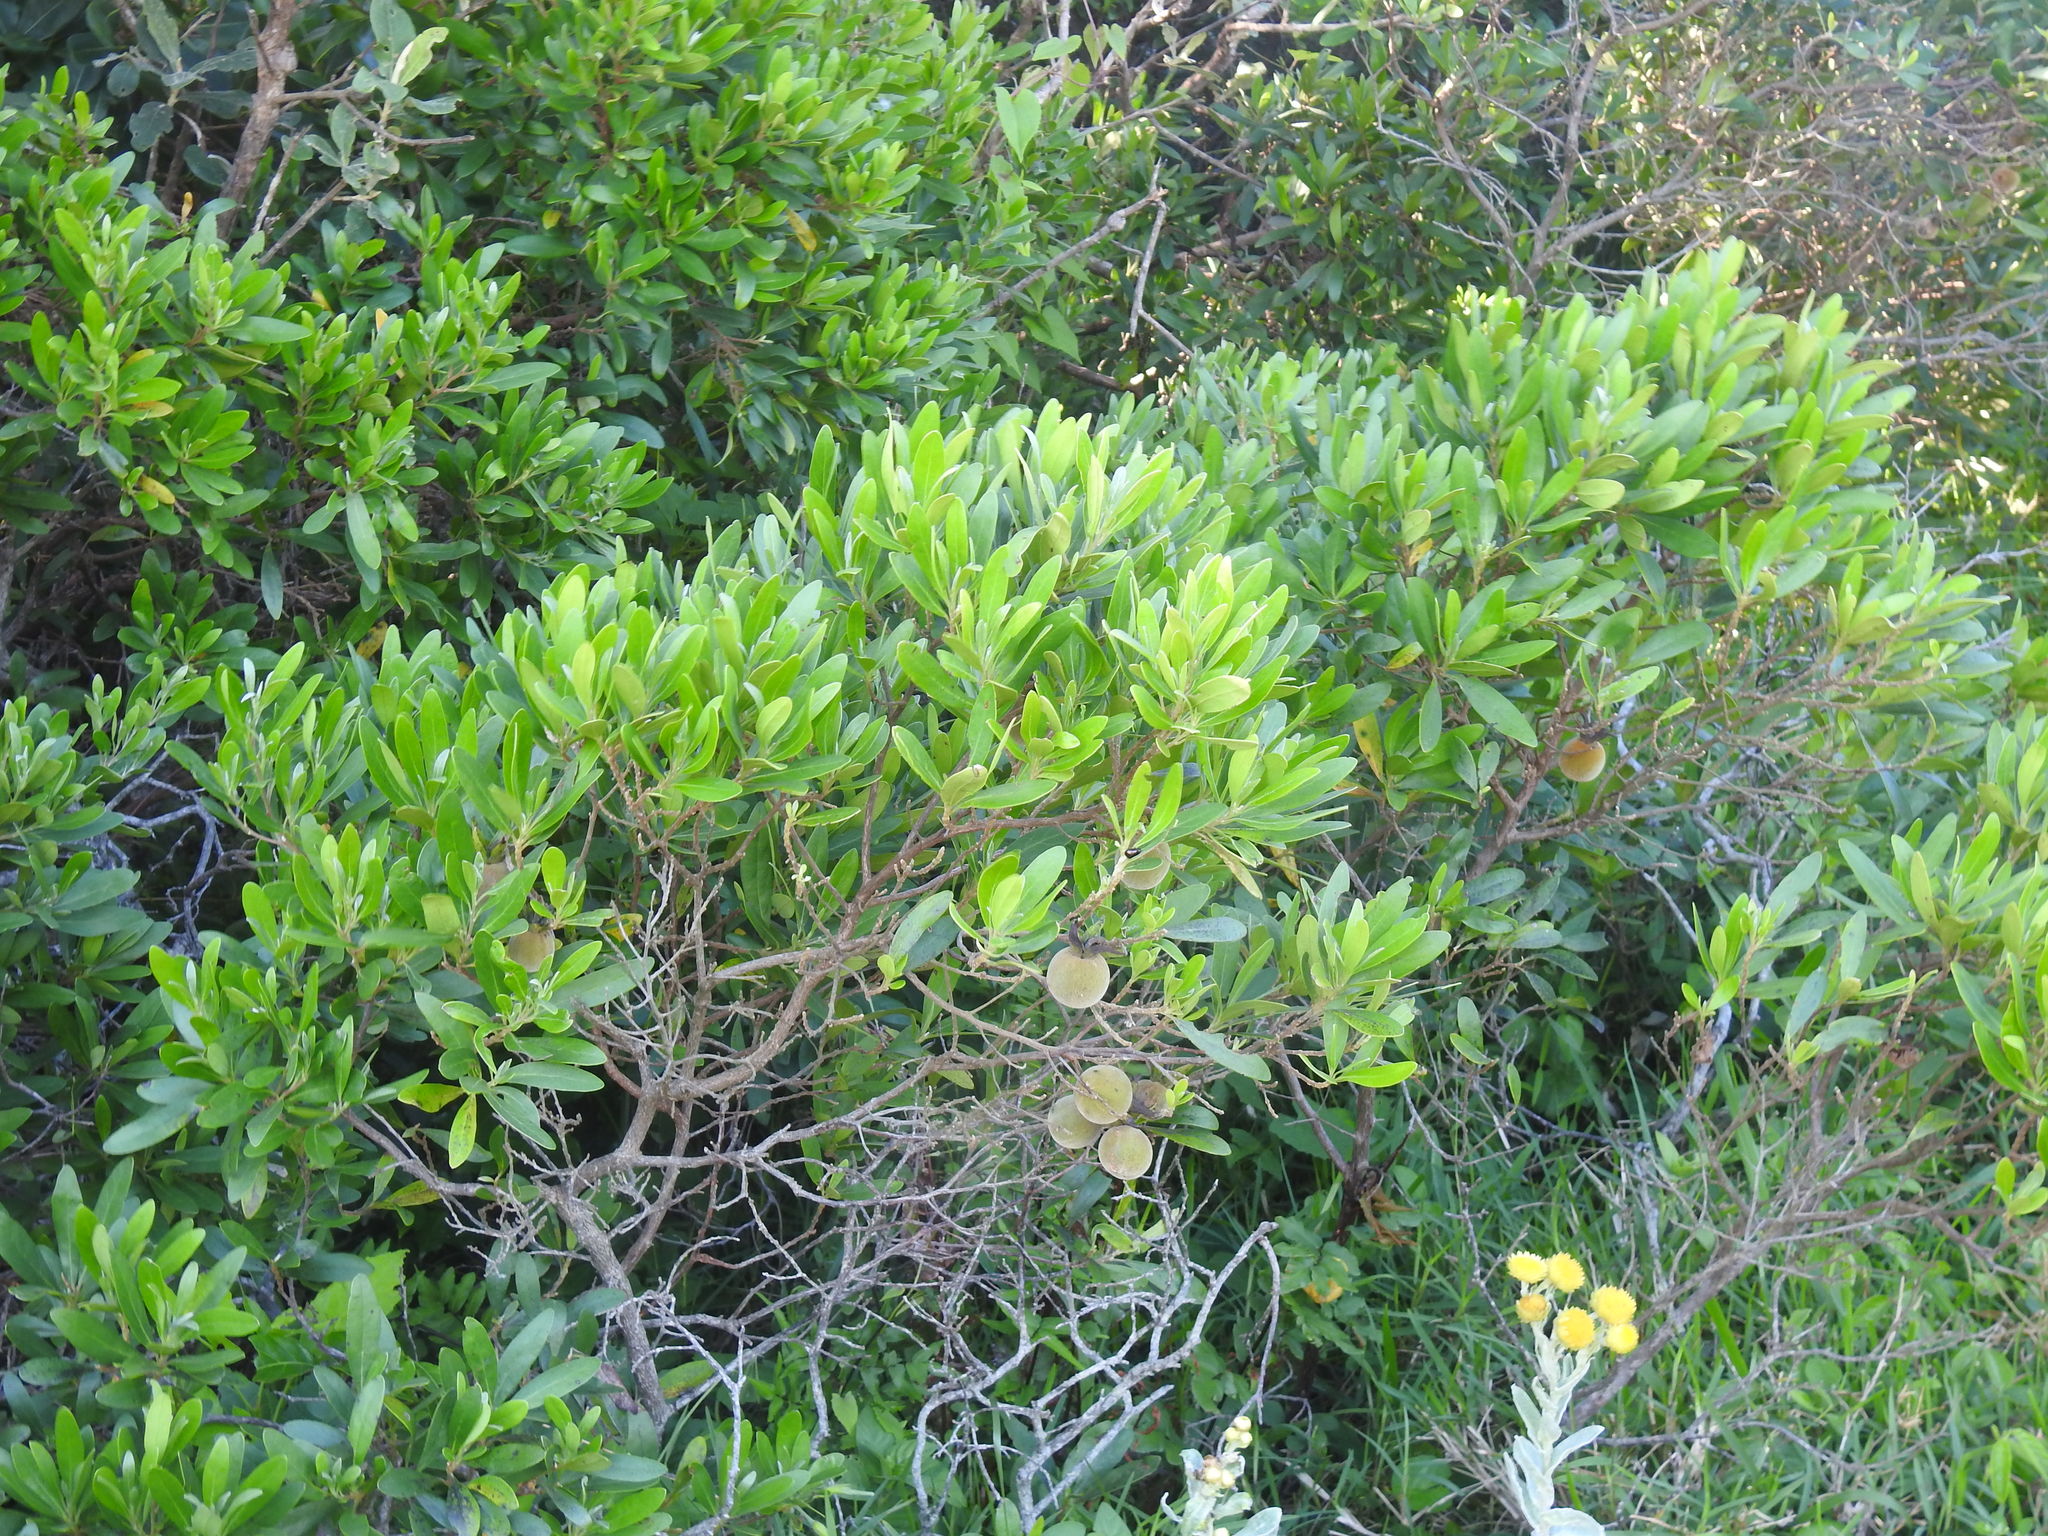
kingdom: Plantae
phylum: Tracheophyta
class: Magnoliopsida
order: Ericales
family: Ebenaceae
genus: Diospyros
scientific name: Diospyros dichrophylla
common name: Common star-apple
